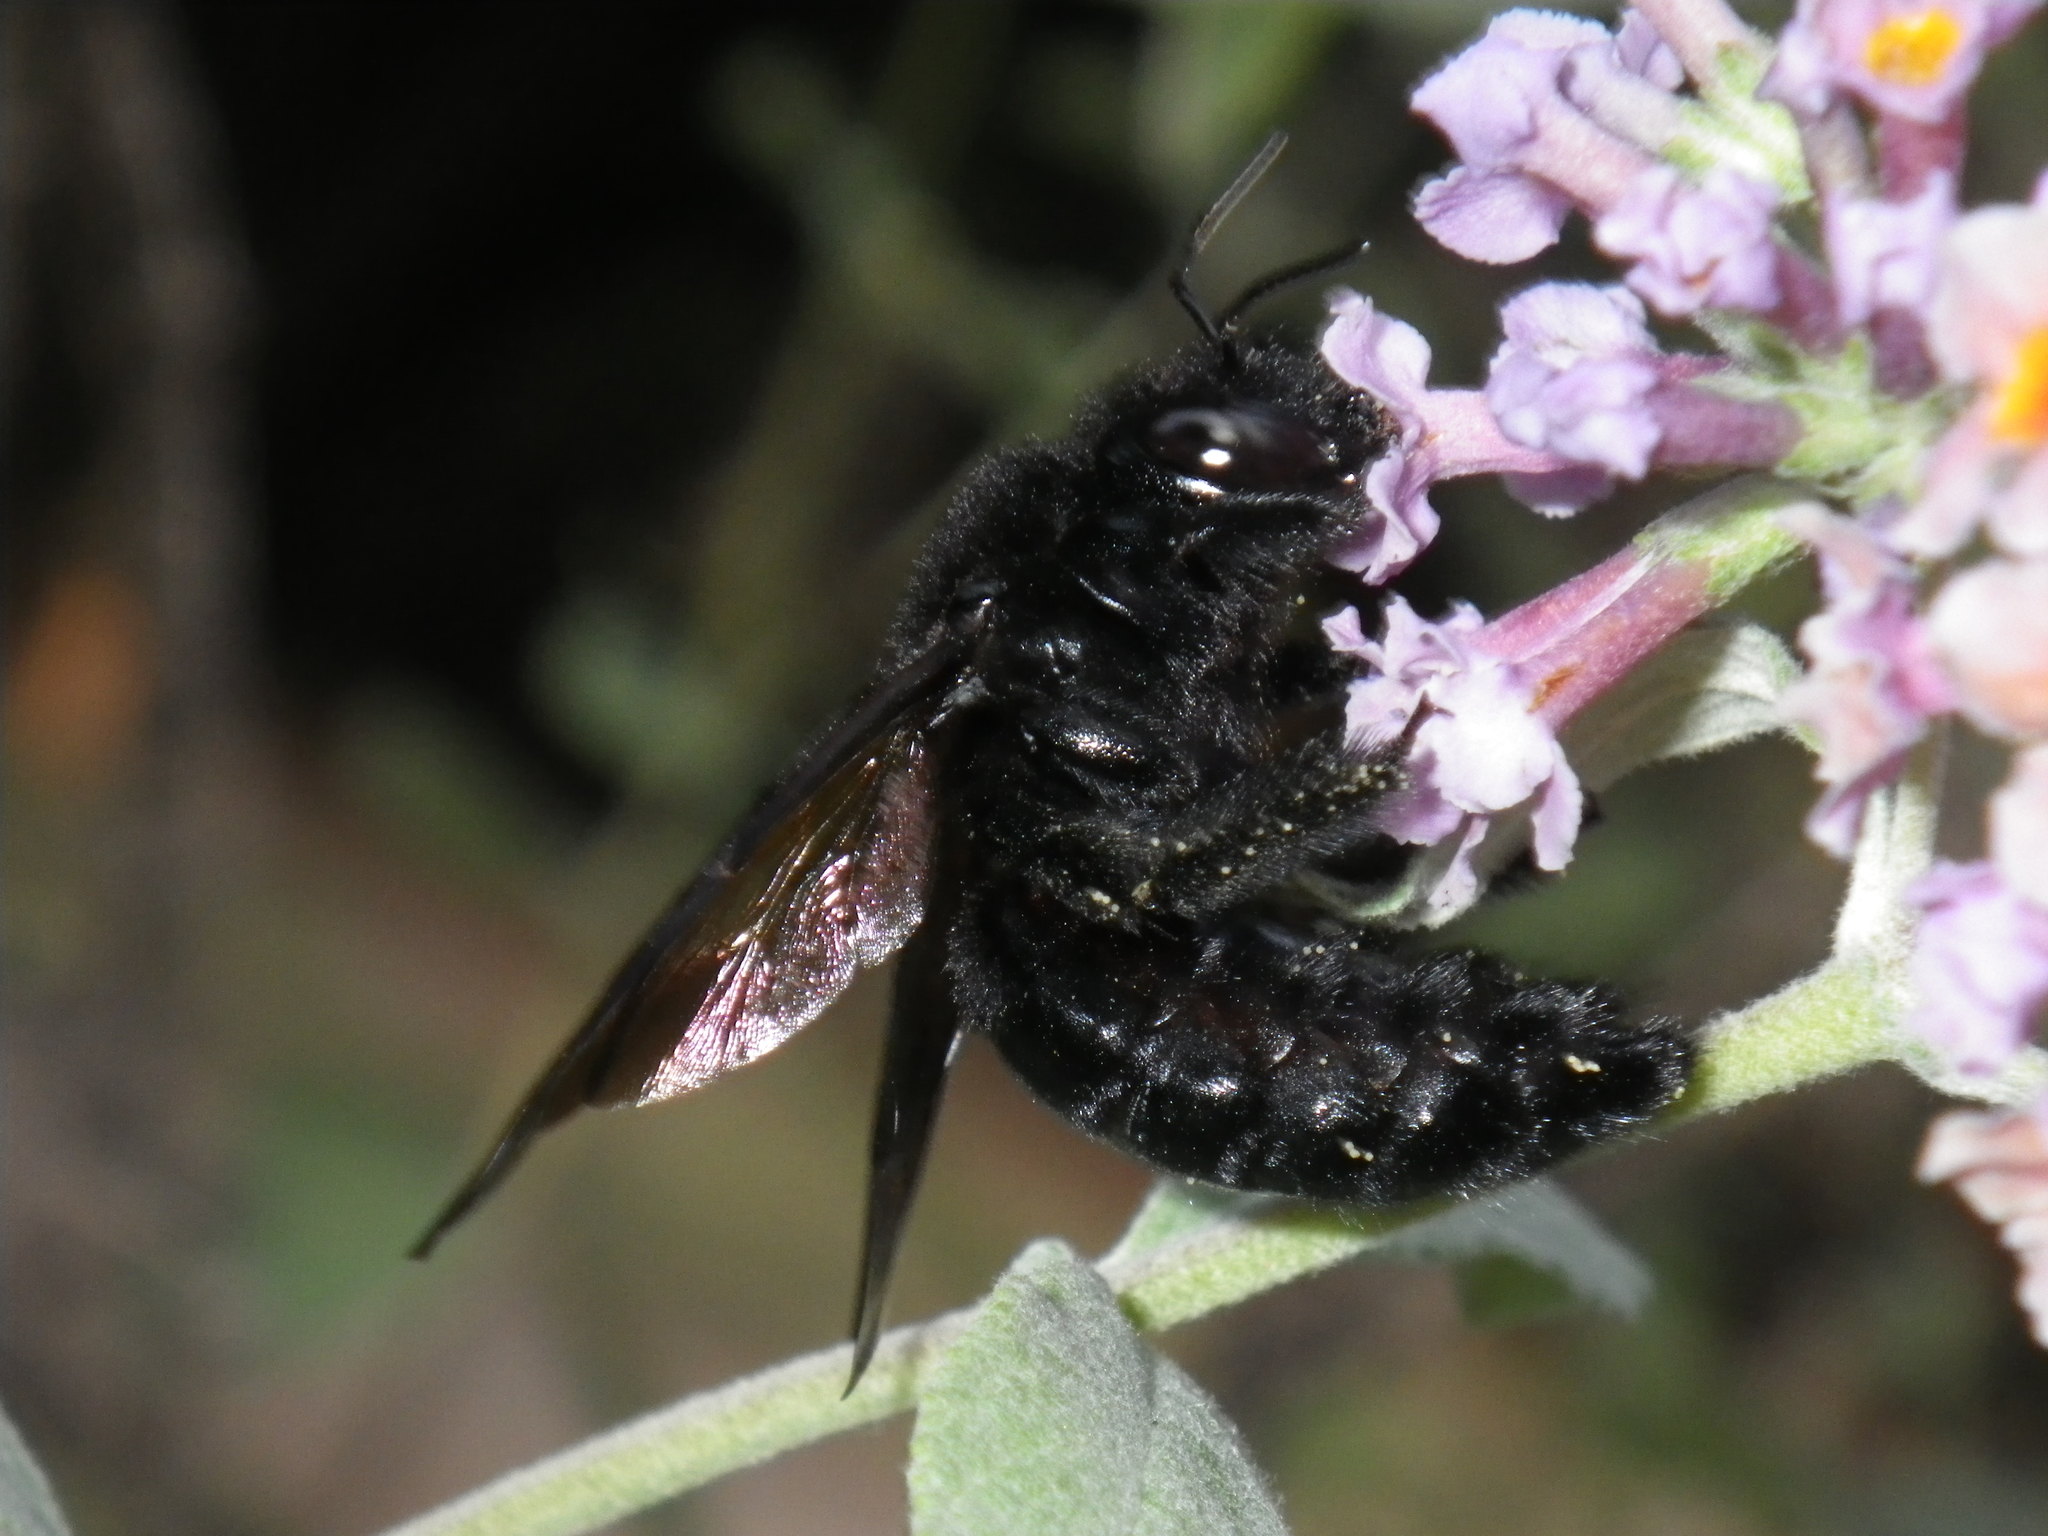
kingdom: Animalia
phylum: Arthropoda
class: Insecta
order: Hymenoptera
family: Apidae
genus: Xylocopa
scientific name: Xylocopa sonorina
